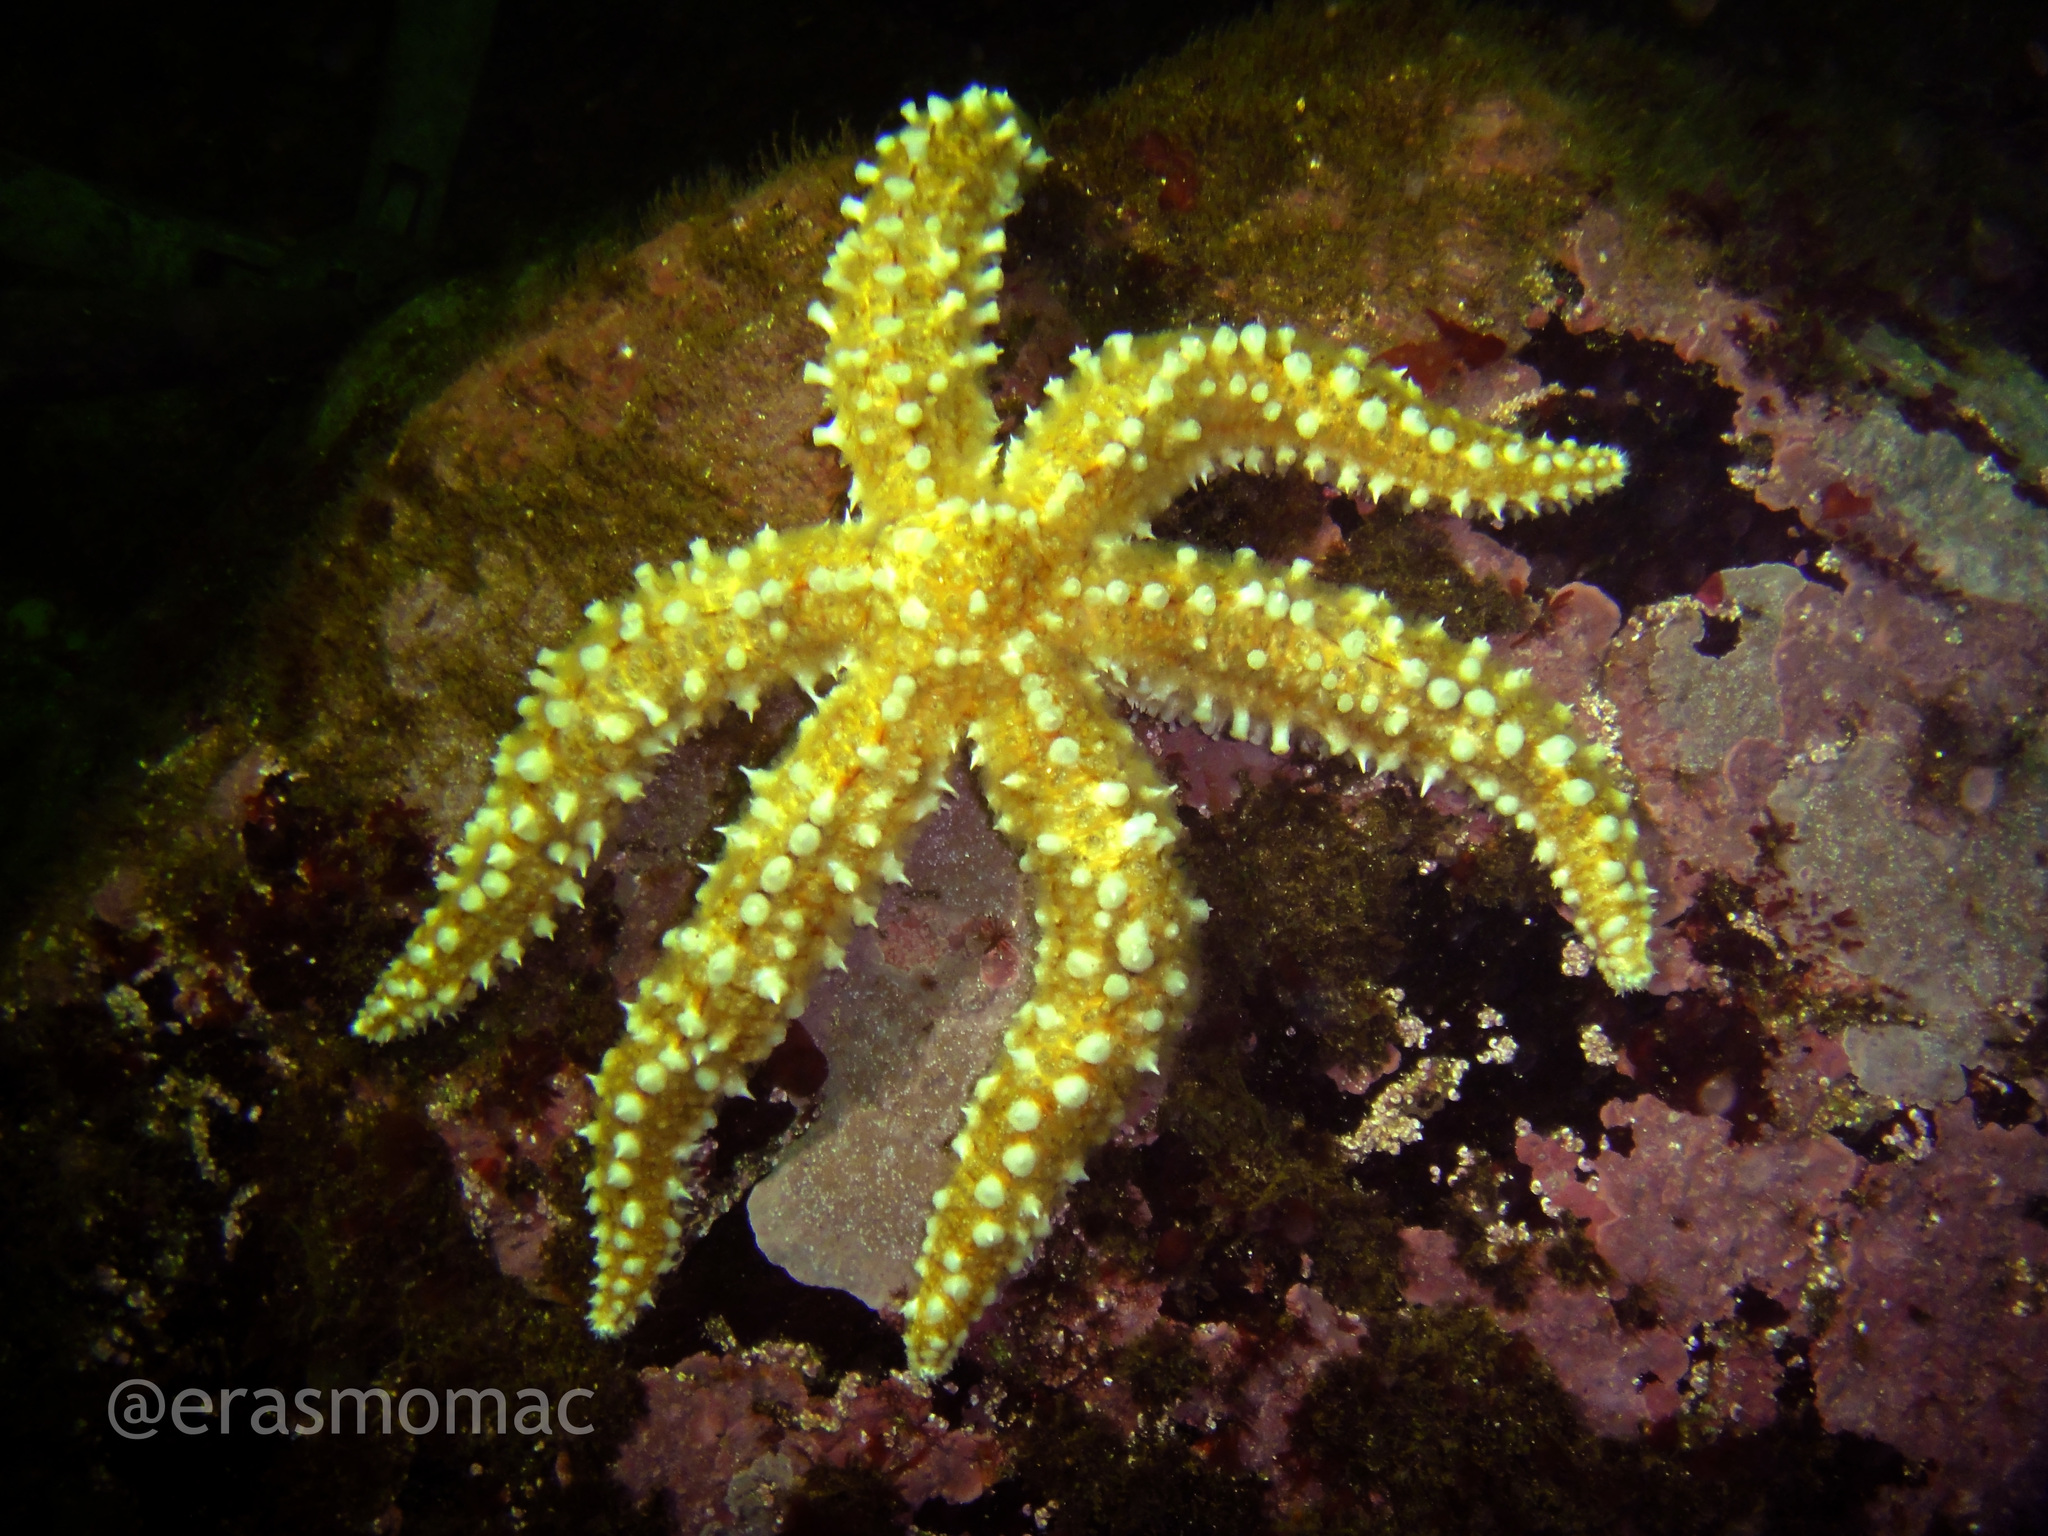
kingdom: Animalia
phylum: Echinodermata
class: Asteroidea
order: Forcipulatida
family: Asteriidae
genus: Meyenaster
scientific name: Meyenaster gelatinosus
